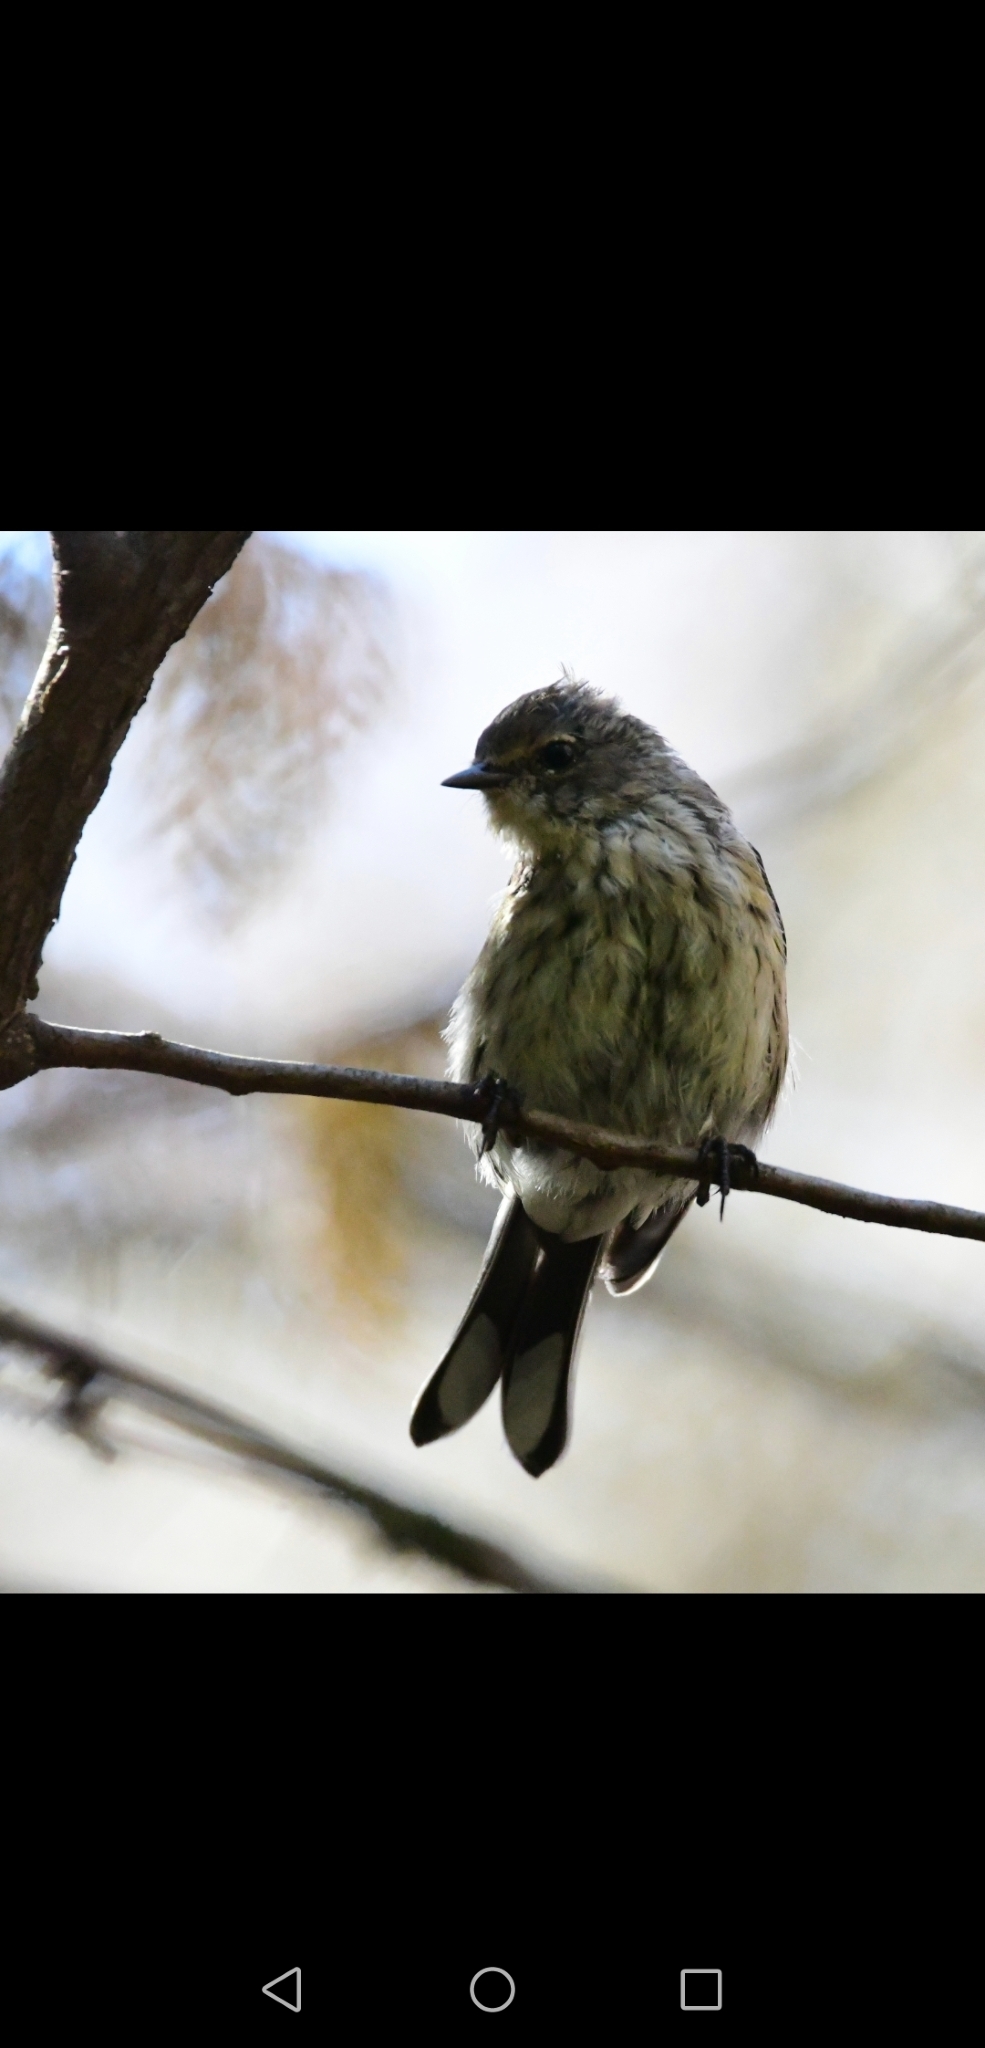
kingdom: Animalia
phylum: Chordata
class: Aves
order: Passeriformes
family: Parulidae
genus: Setophaga
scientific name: Setophaga coronata
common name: Myrtle warbler
